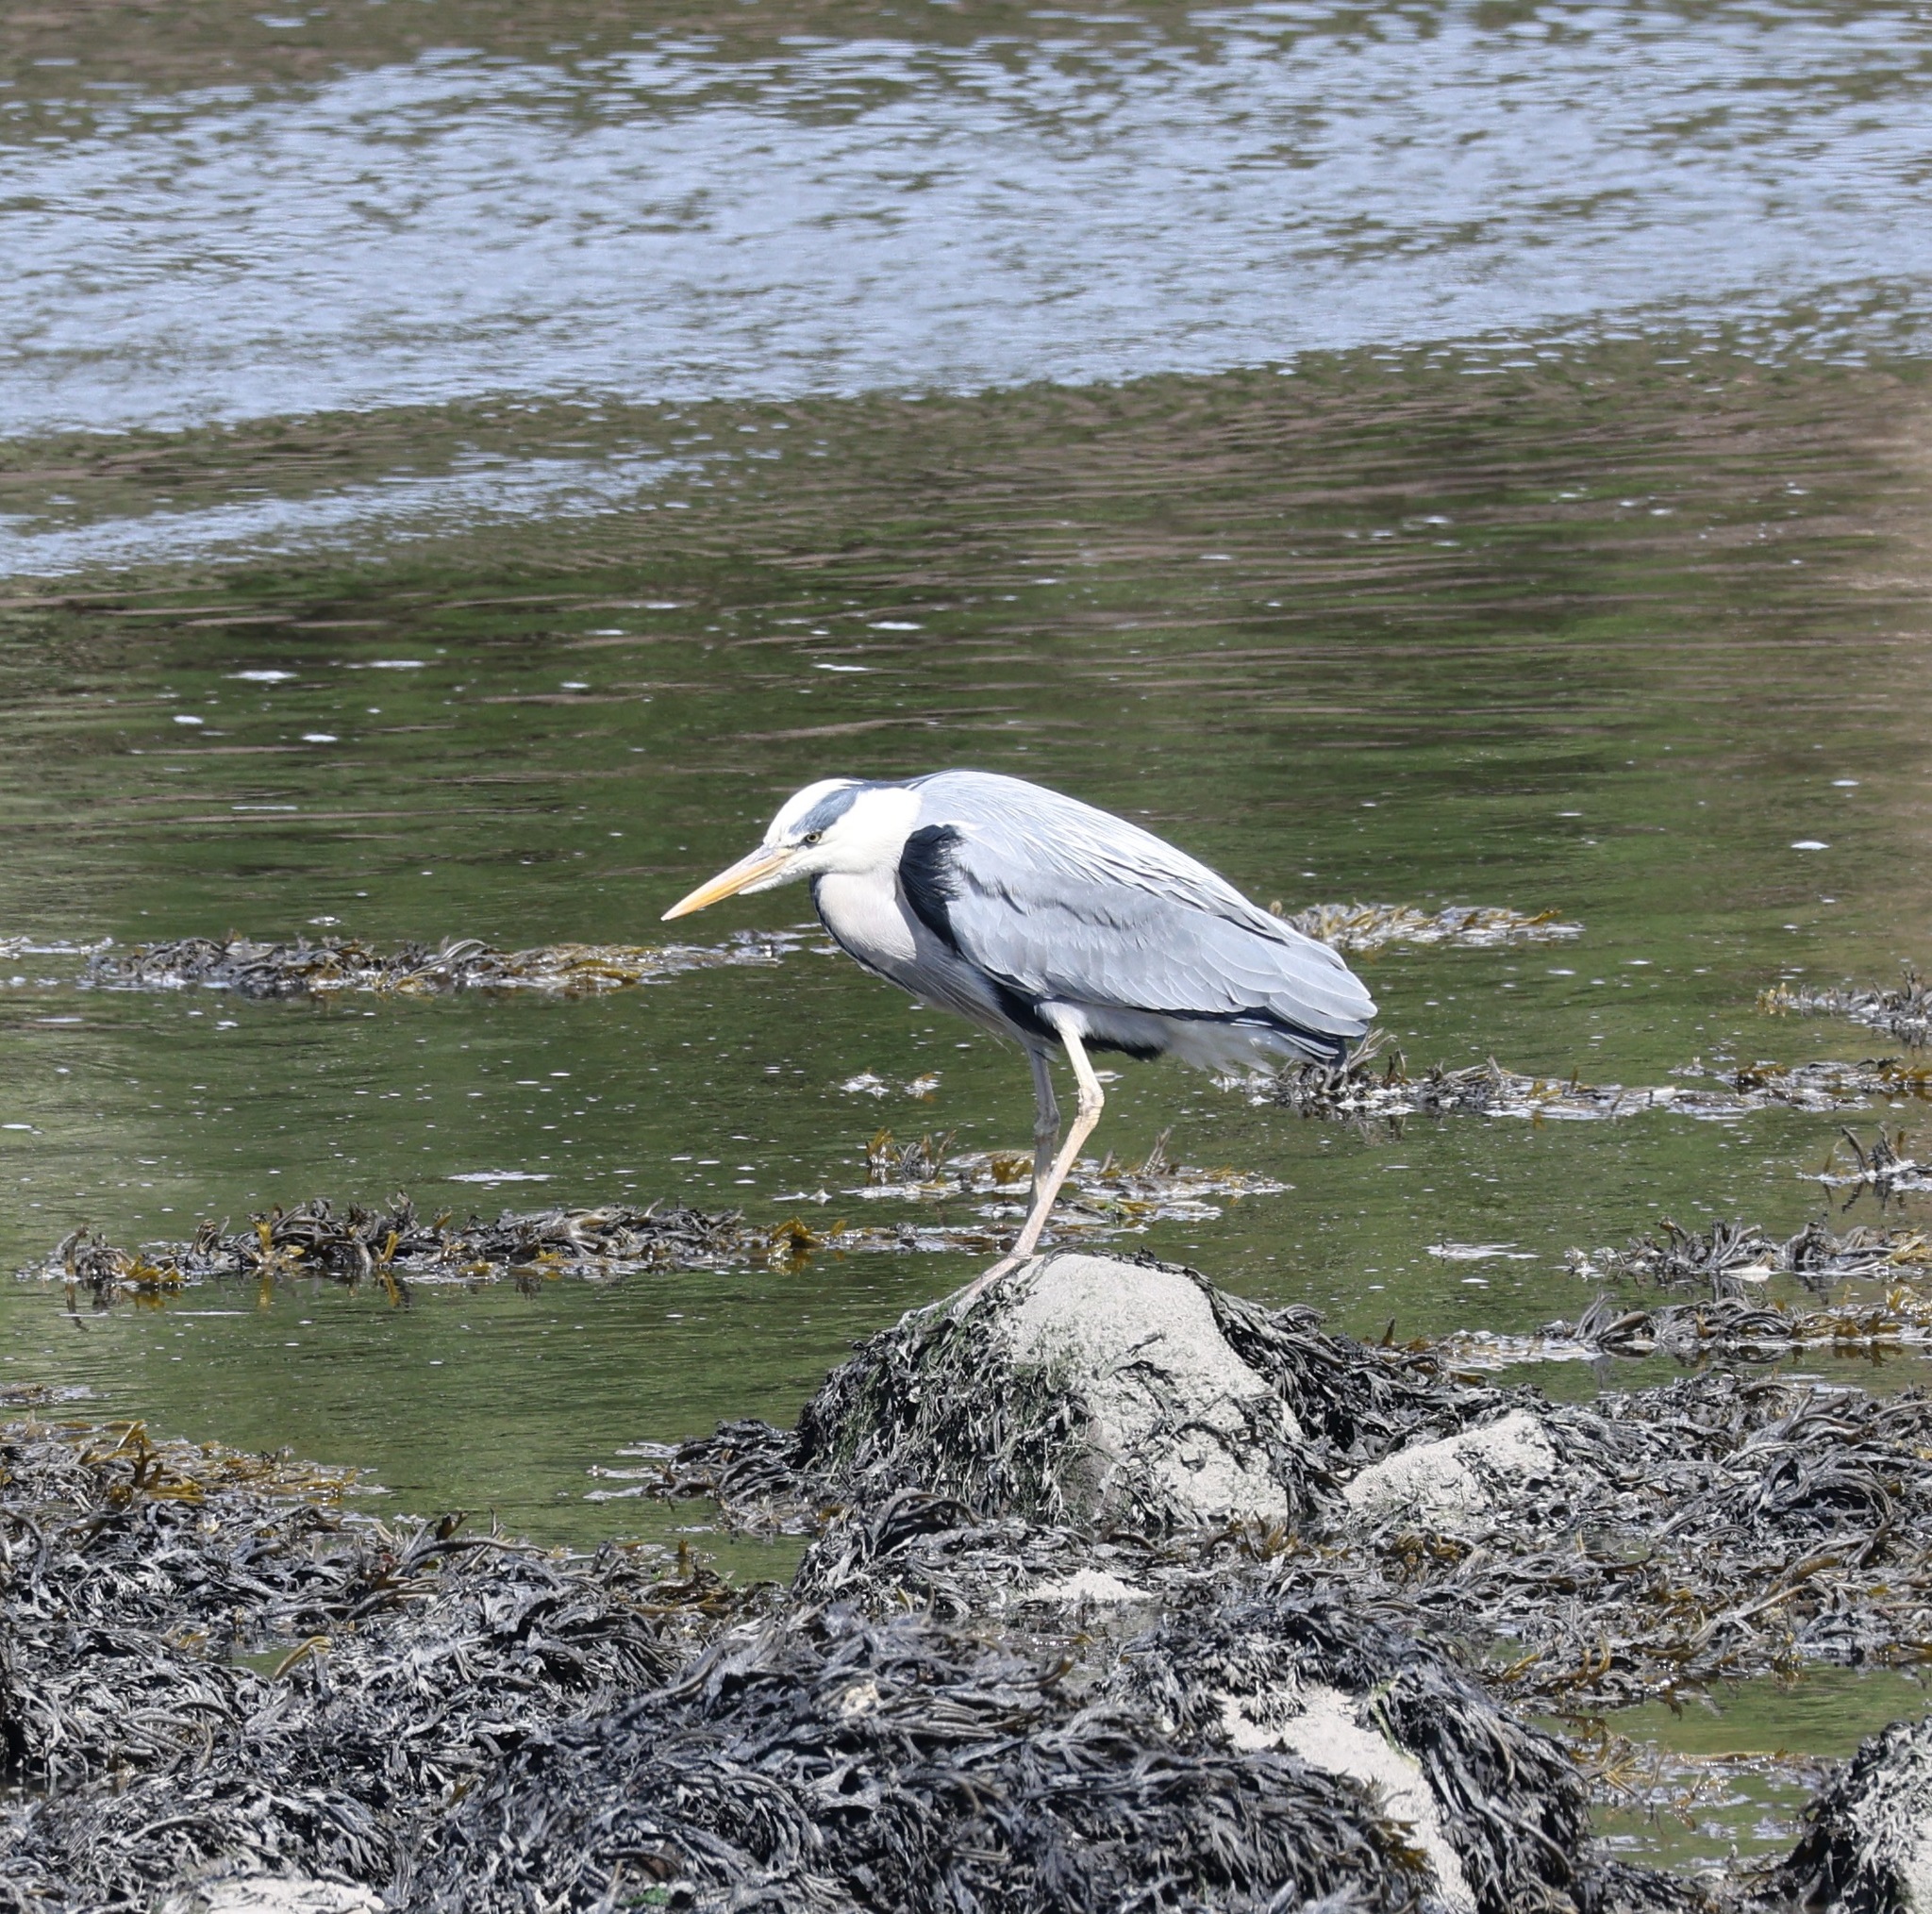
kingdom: Animalia
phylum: Chordata
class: Aves
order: Pelecaniformes
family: Ardeidae
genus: Ardea
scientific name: Ardea cinerea
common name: Grey heron
